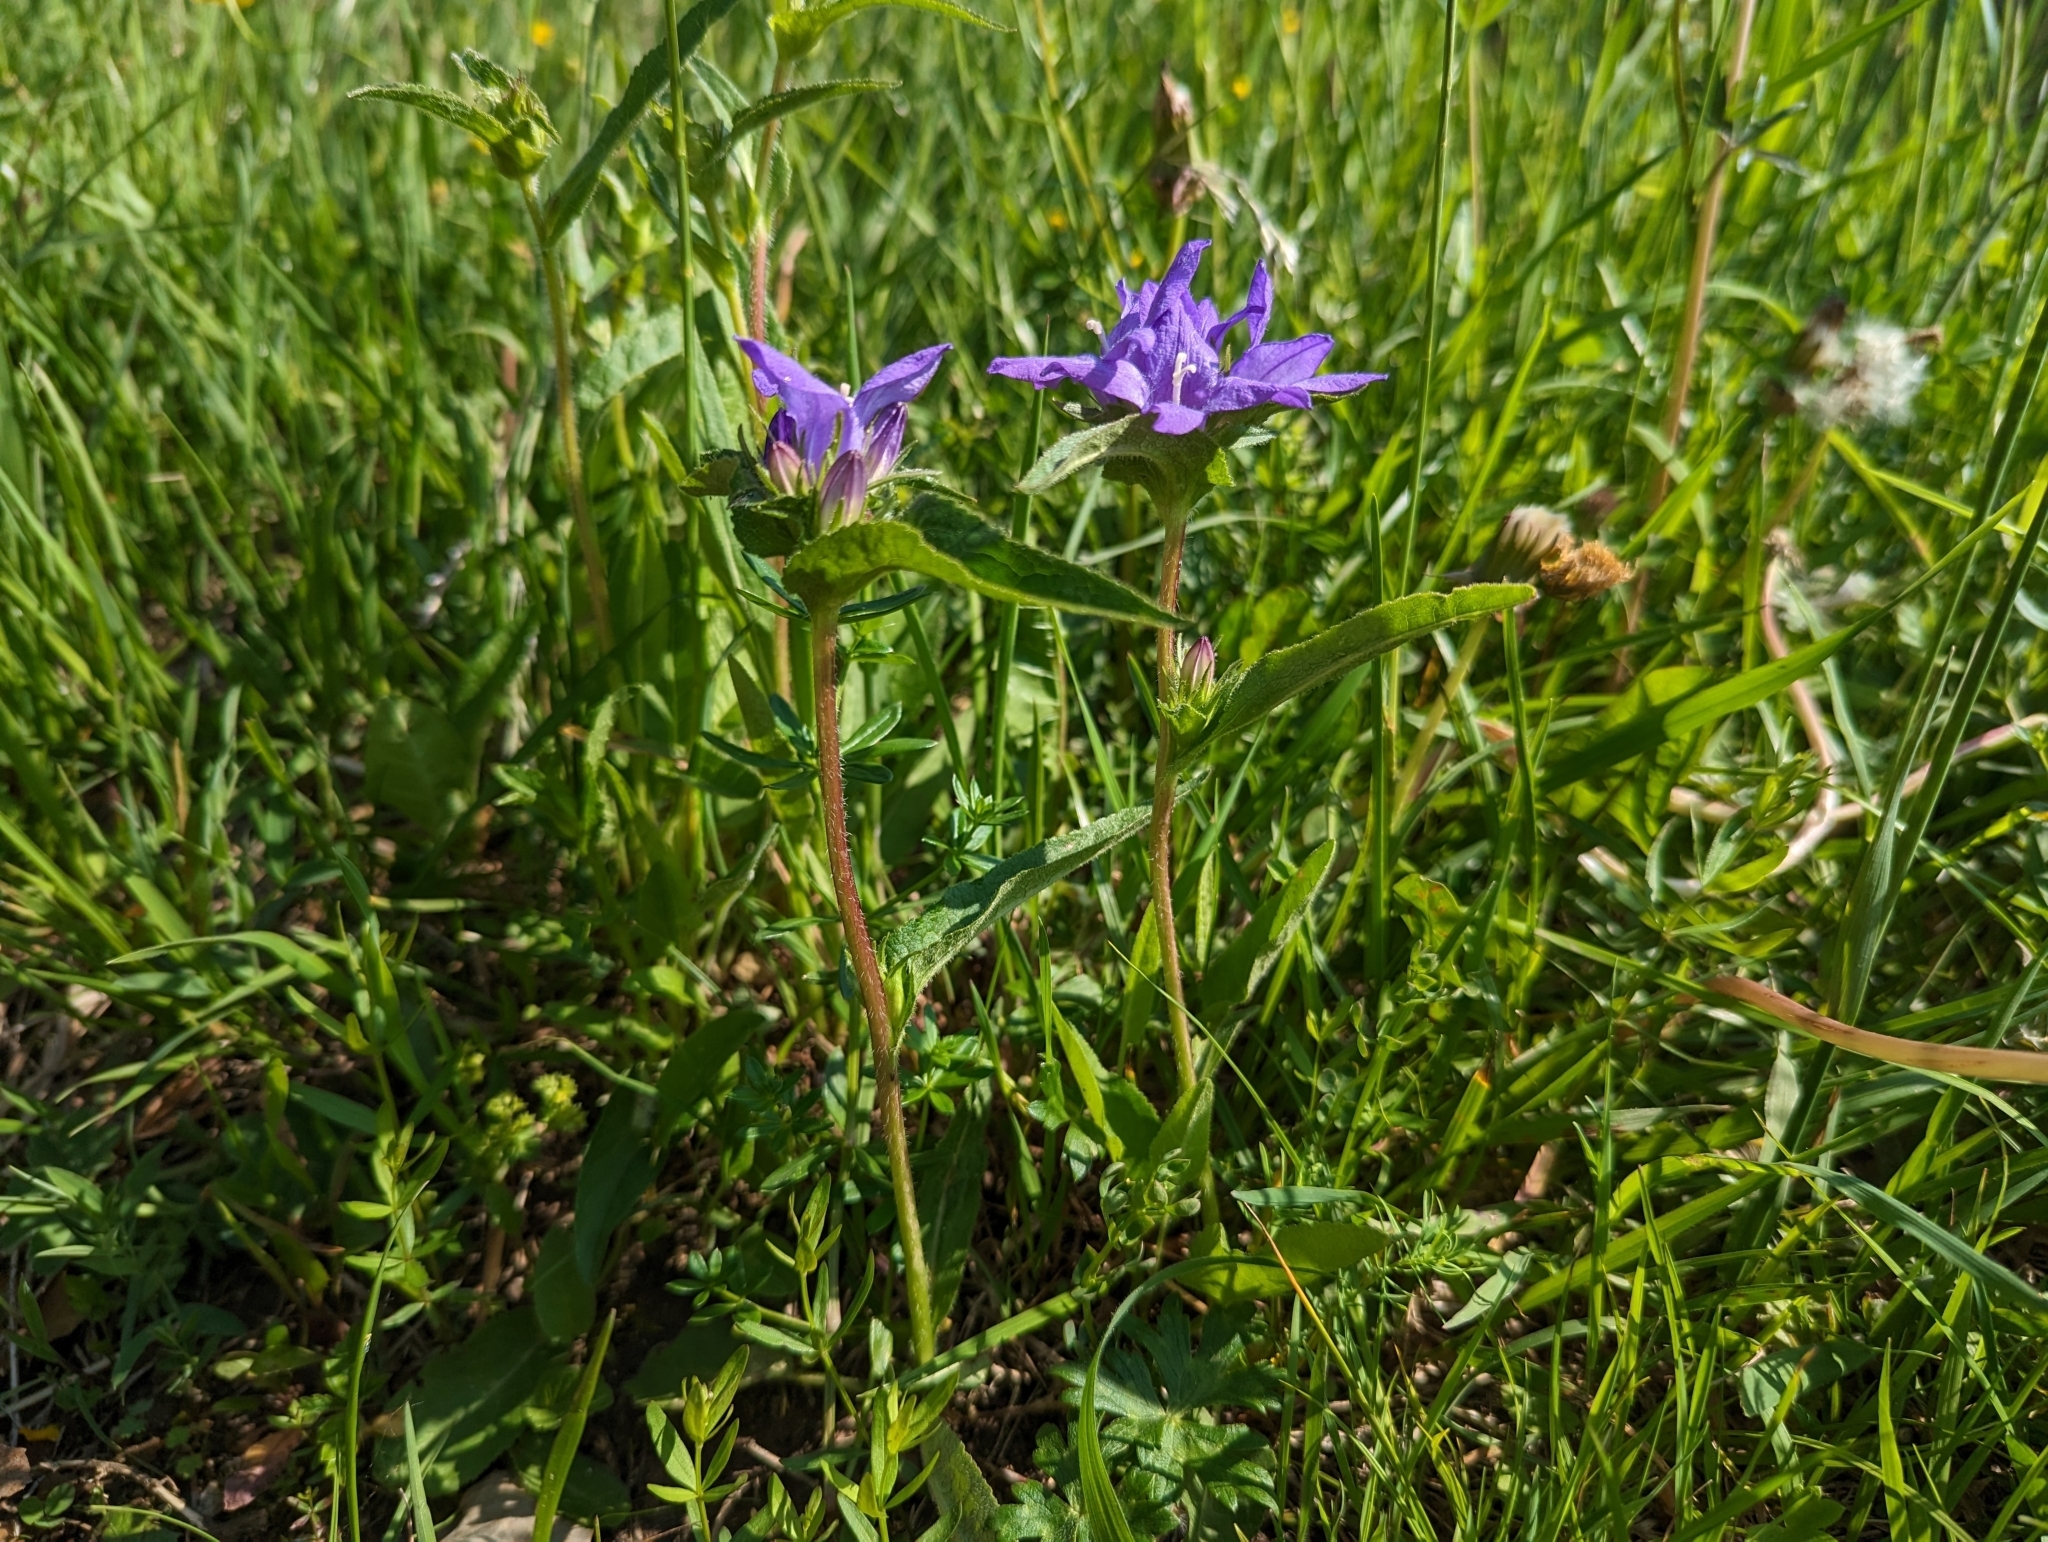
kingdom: Plantae
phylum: Tracheophyta
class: Magnoliopsida
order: Asterales
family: Campanulaceae
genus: Campanula
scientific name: Campanula glomerata
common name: Clustered bellflower
